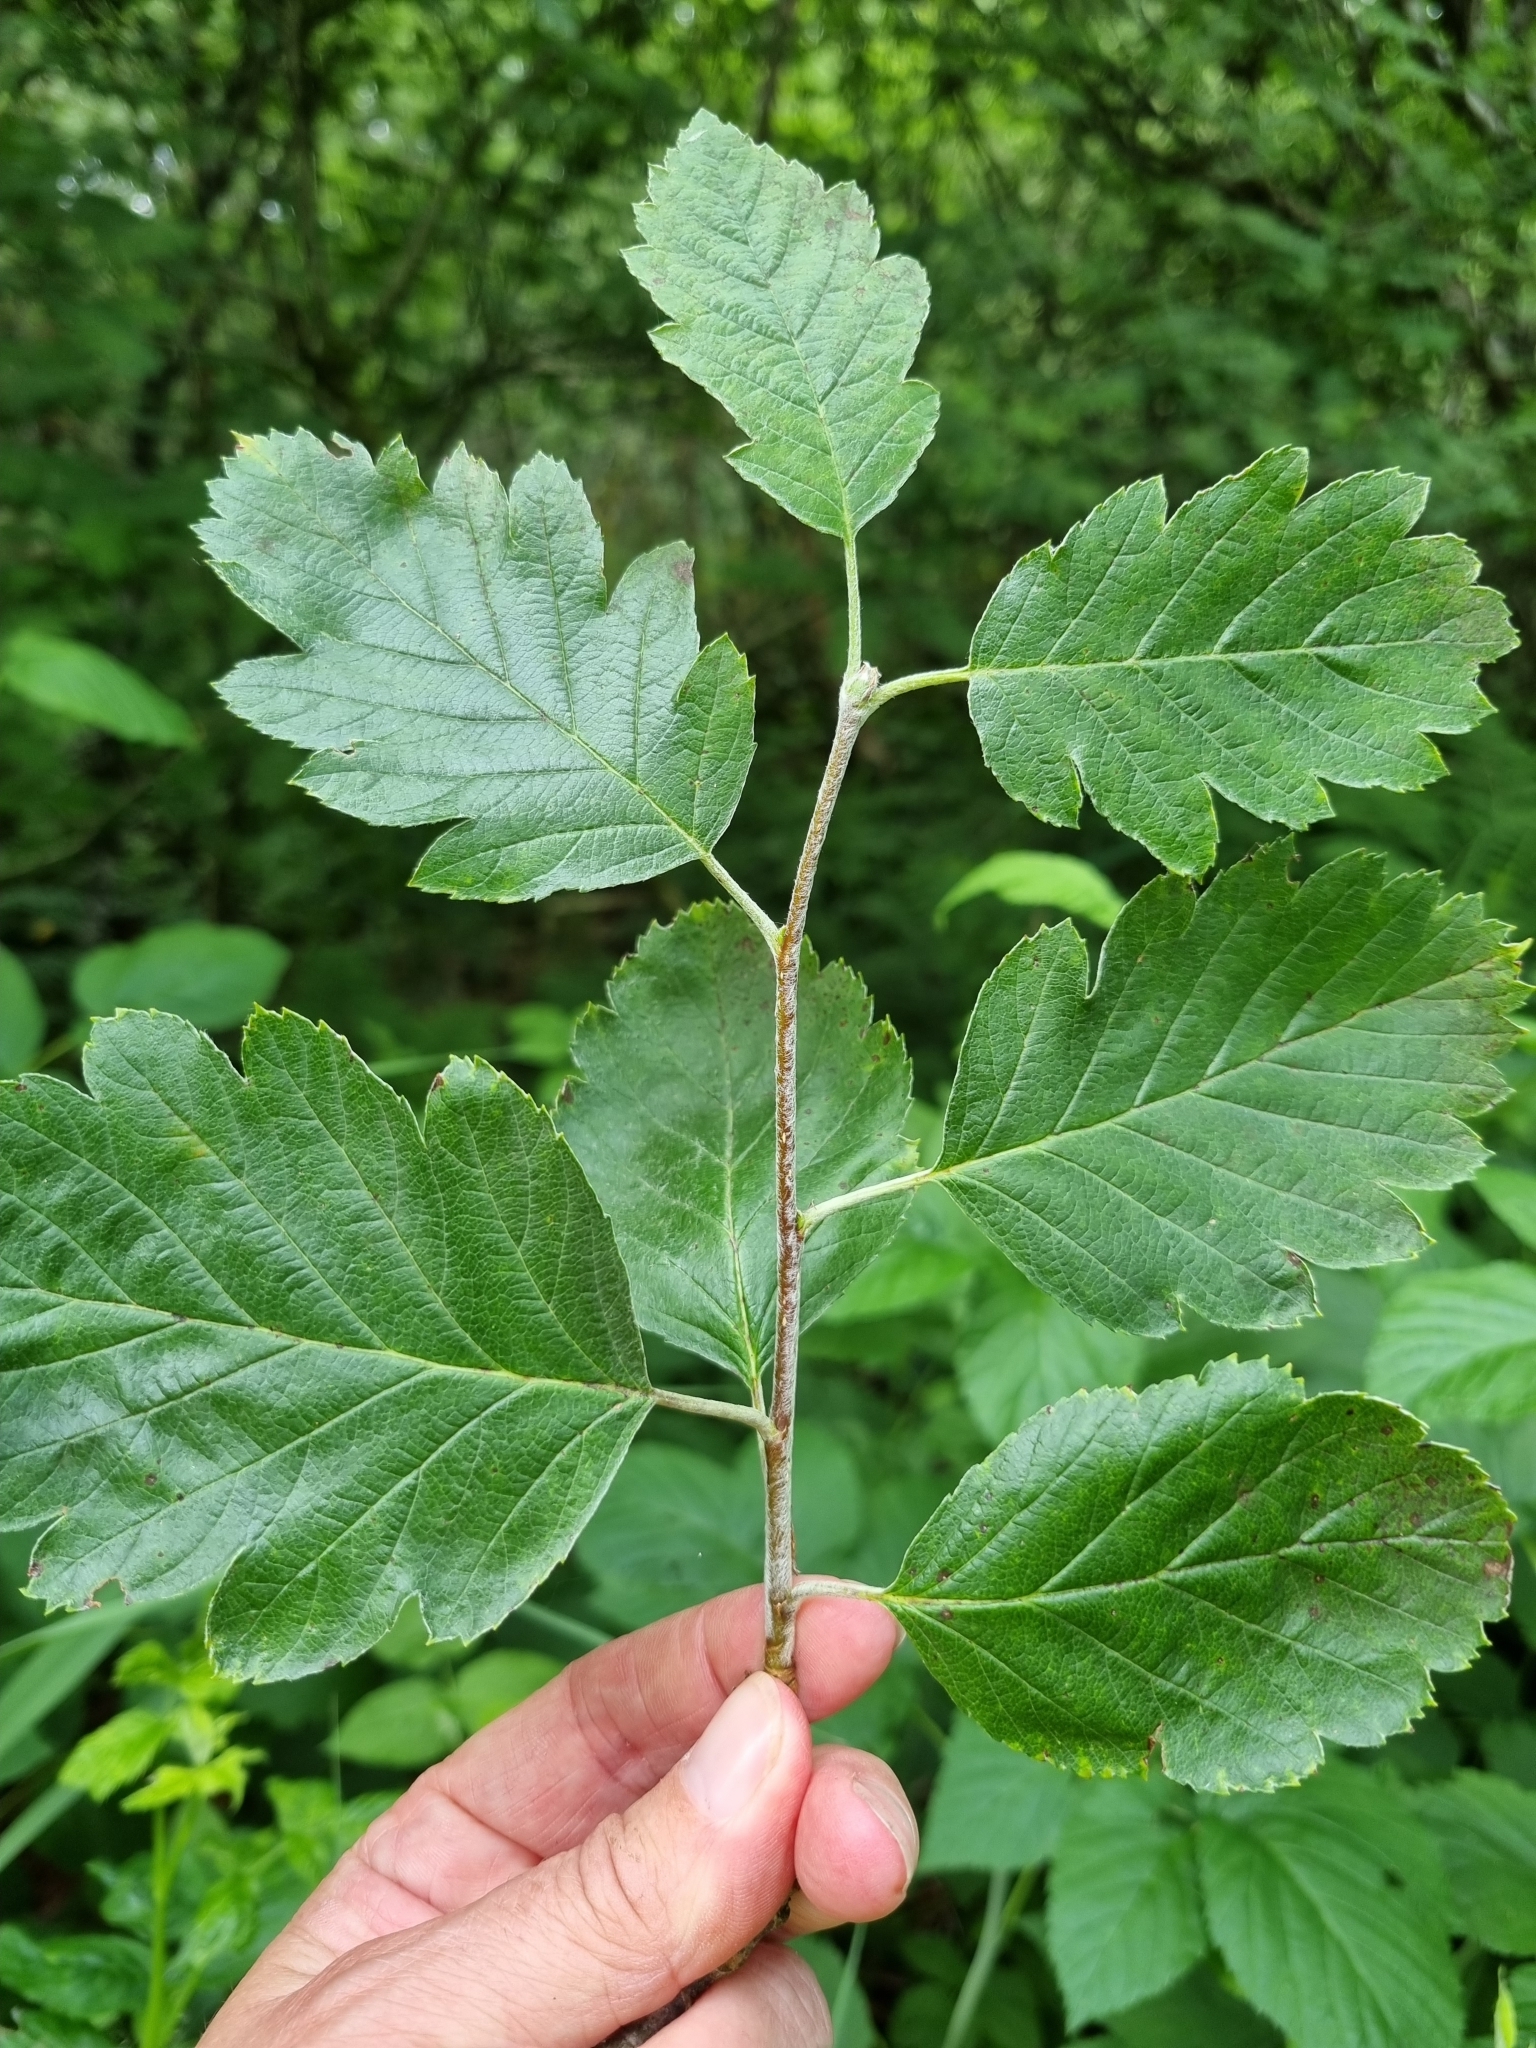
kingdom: Plantae
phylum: Tracheophyta
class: Magnoliopsida
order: Rosales
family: Rosaceae
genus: Scandosorbus
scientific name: Scandosorbus intermedia
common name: Swedish whitebeam
